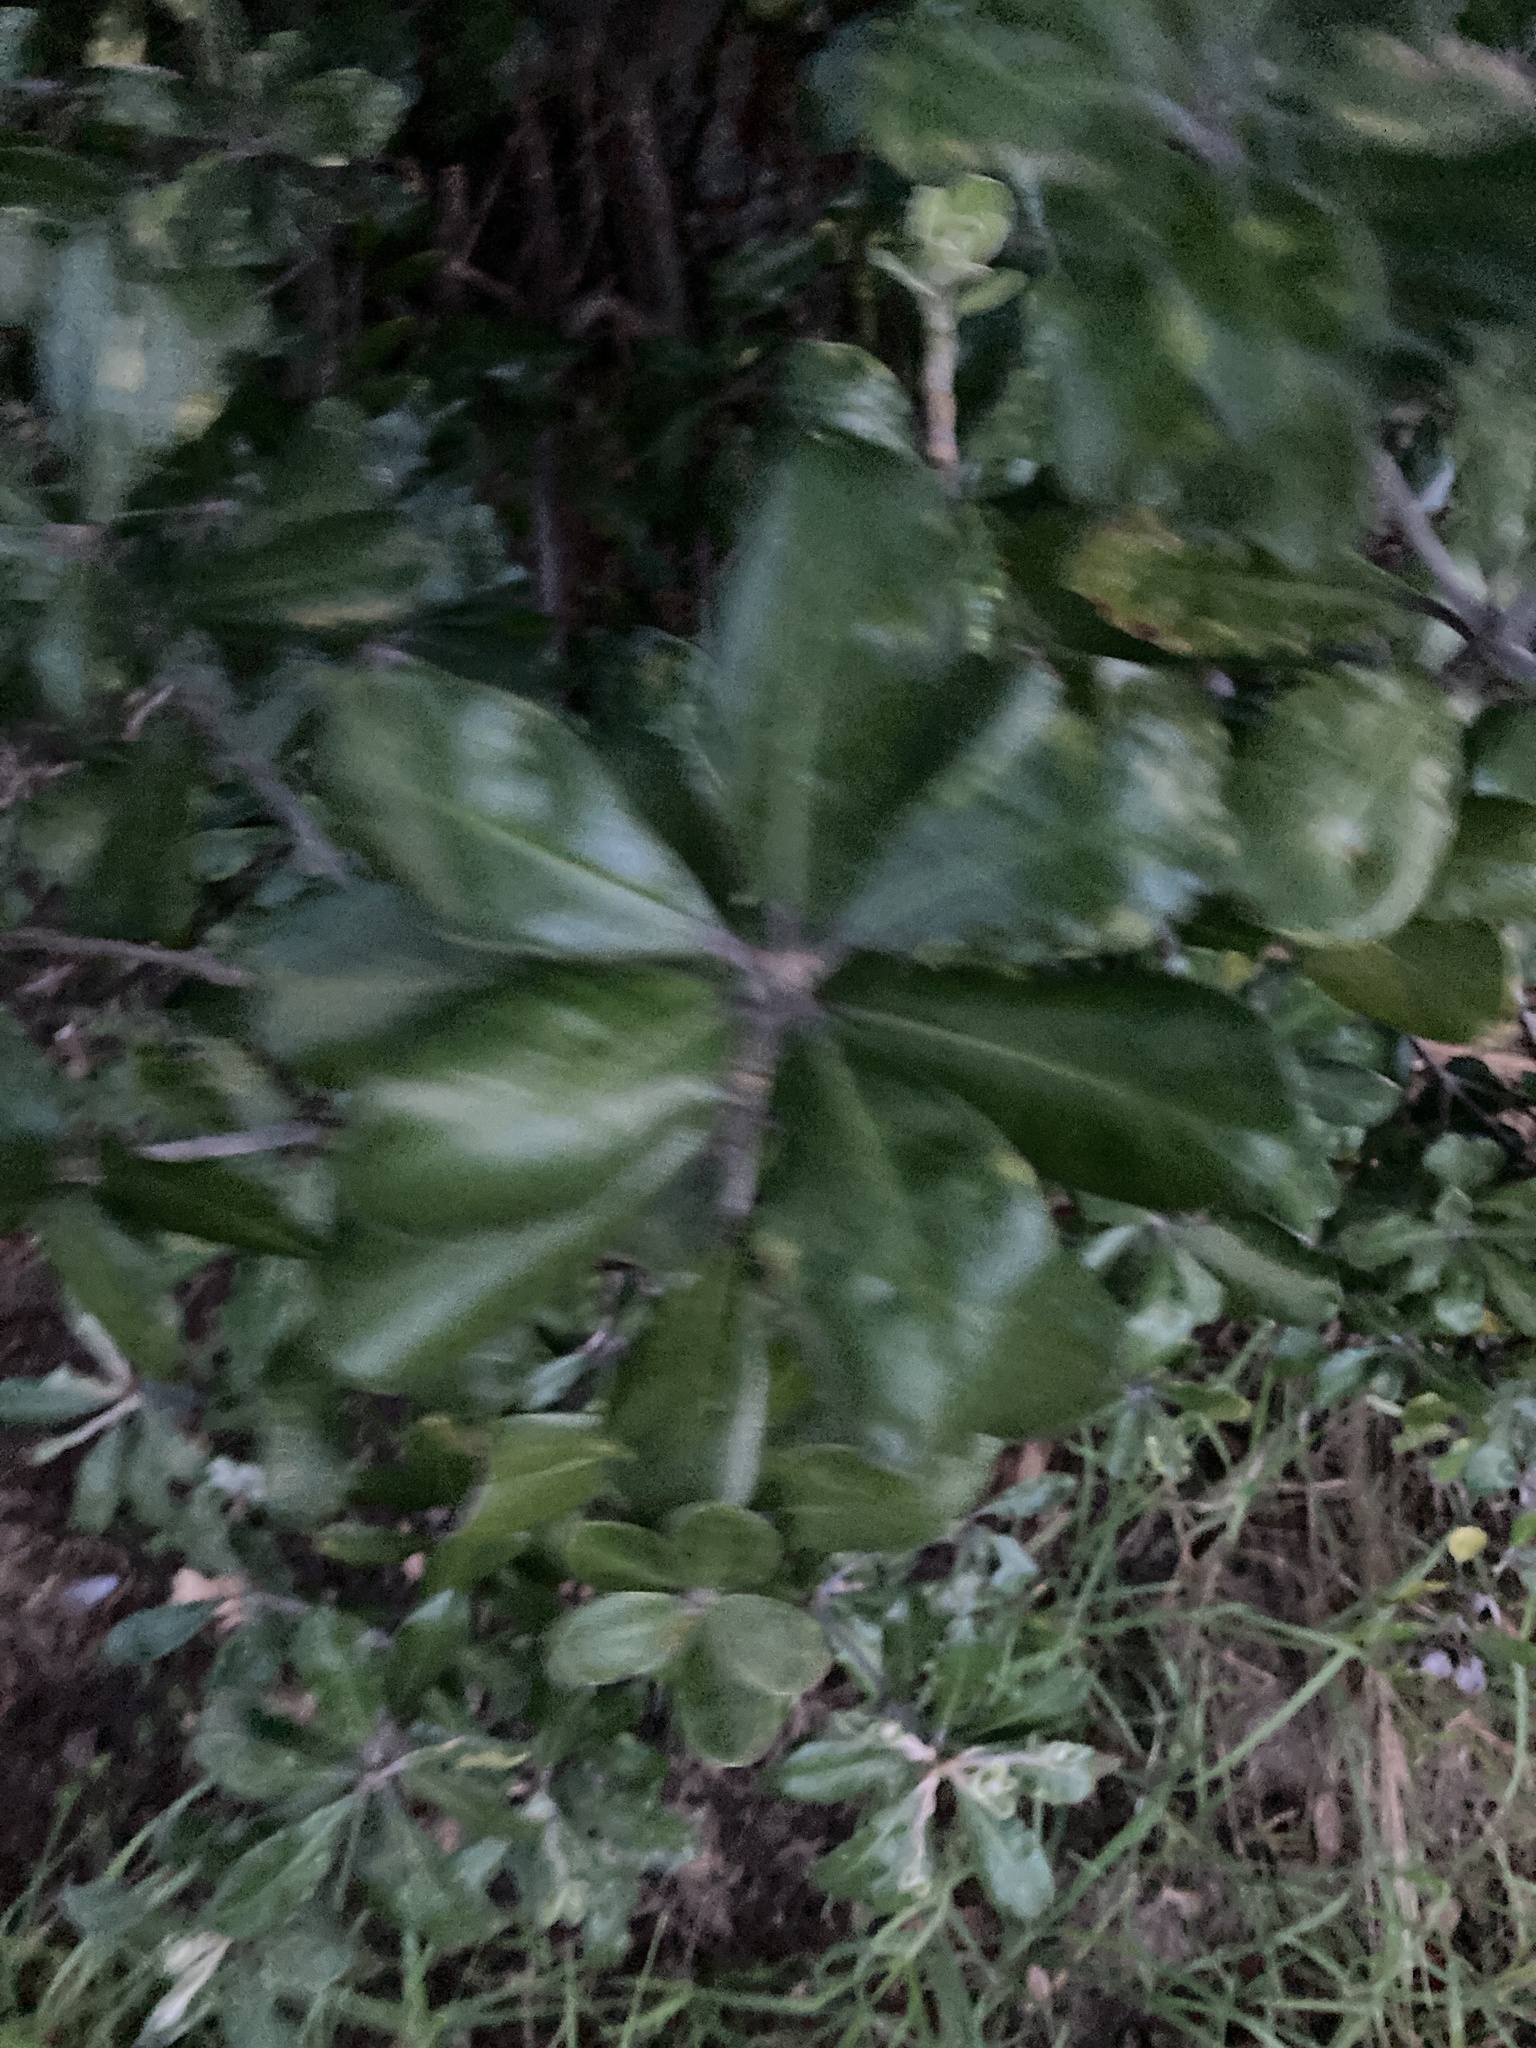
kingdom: Plantae
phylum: Tracheophyta
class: Magnoliopsida
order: Apiales
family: Pittosporaceae
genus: Pittosporum
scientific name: Pittosporum crassifolium
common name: Karo
